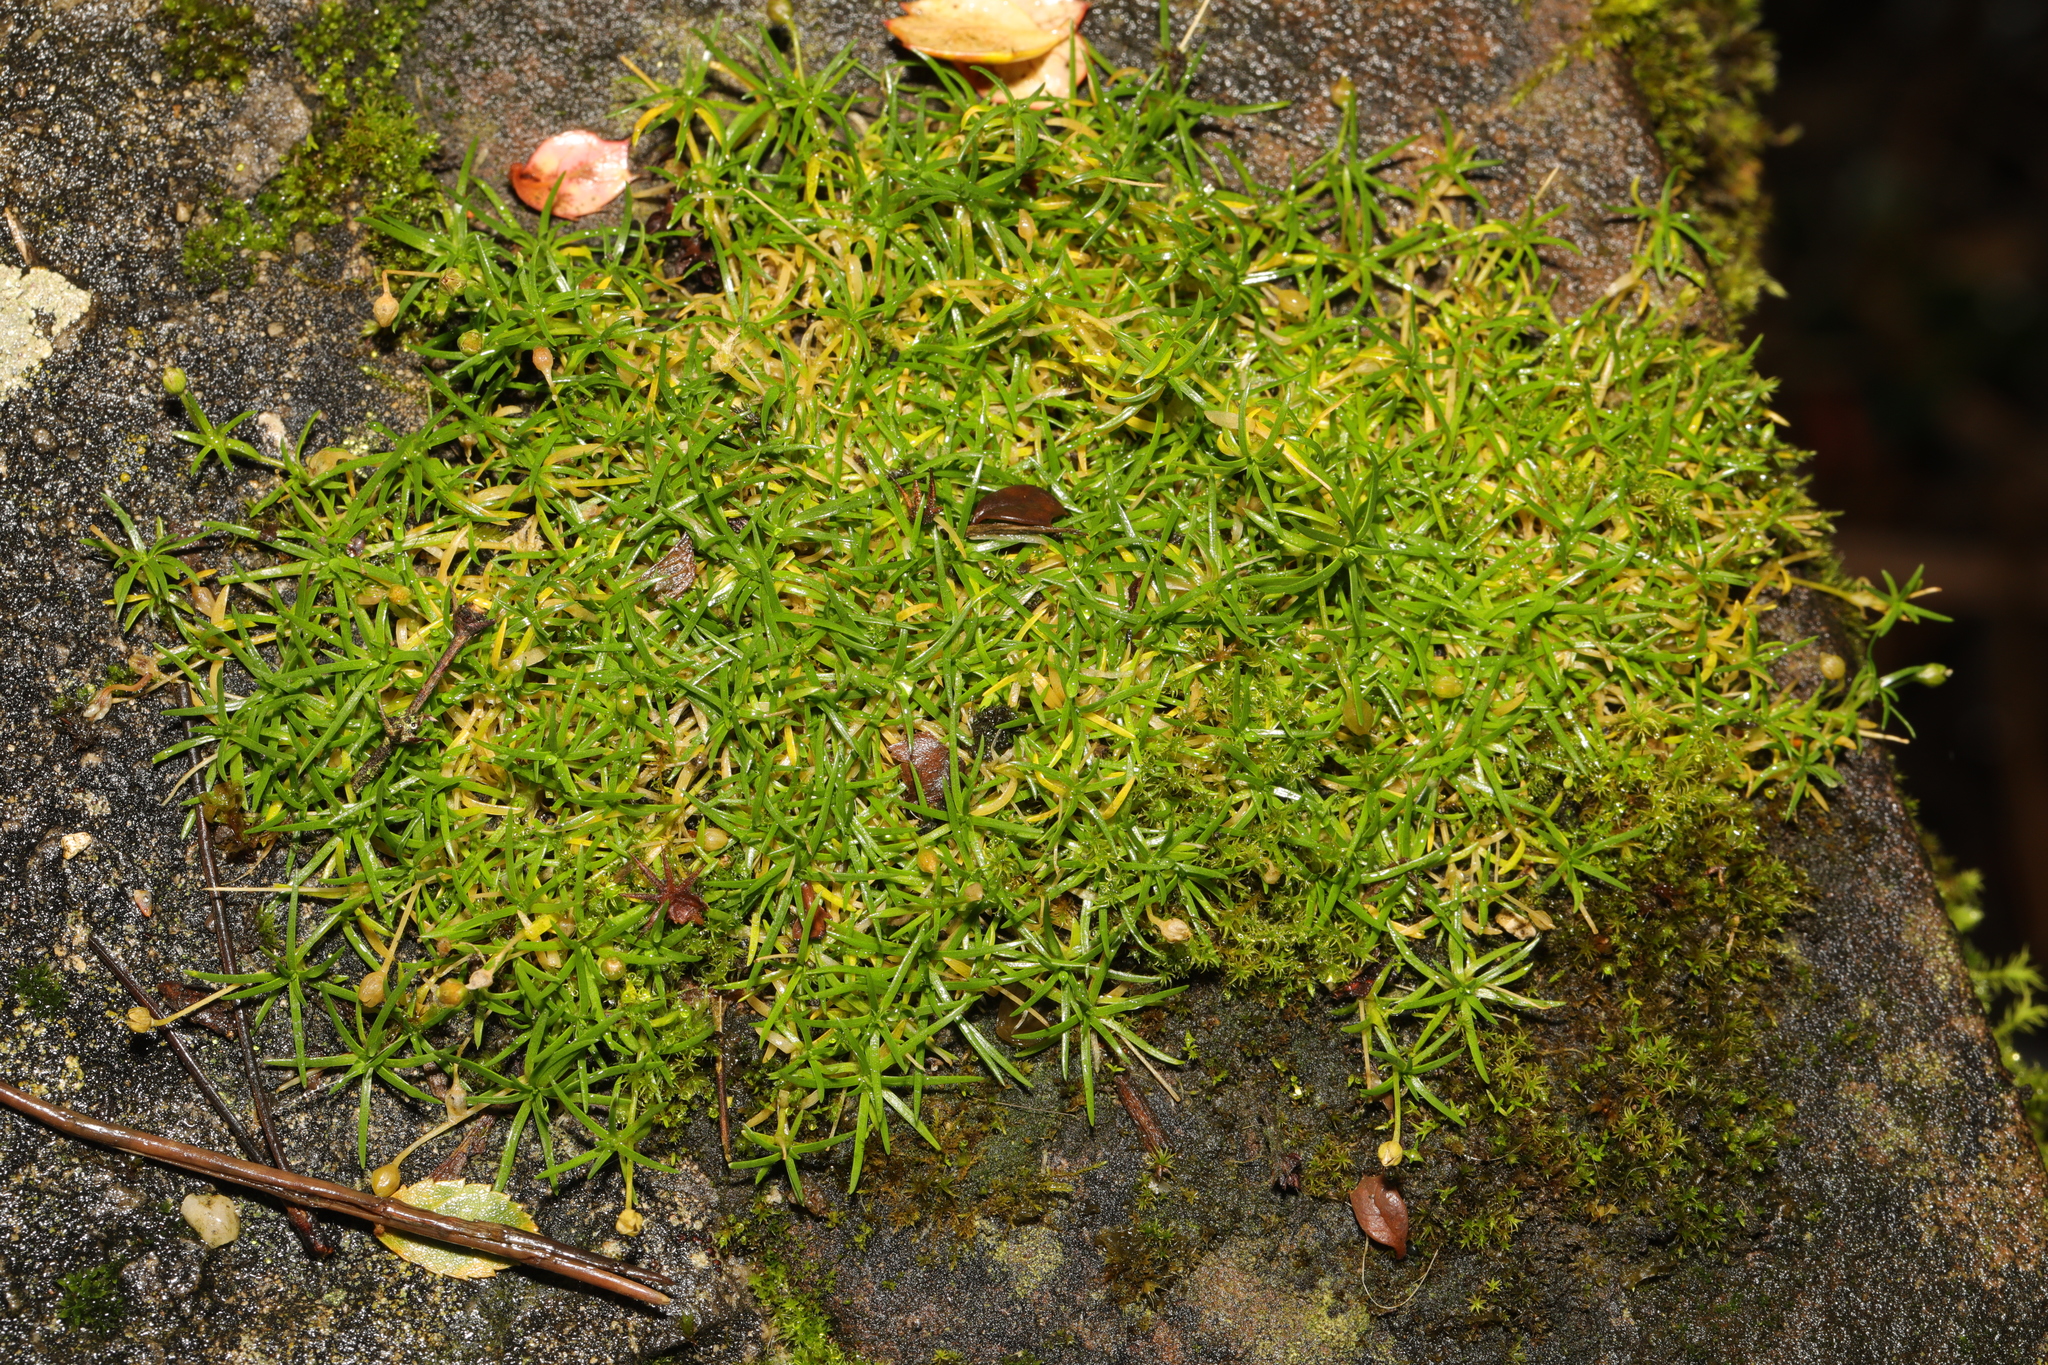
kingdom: Plantae
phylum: Tracheophyta
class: Magnoliopsida
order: Caryophyllales
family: Caryophyllaceae
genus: Sagina
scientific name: Sagina procumbens
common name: Procumbent pearlwort
